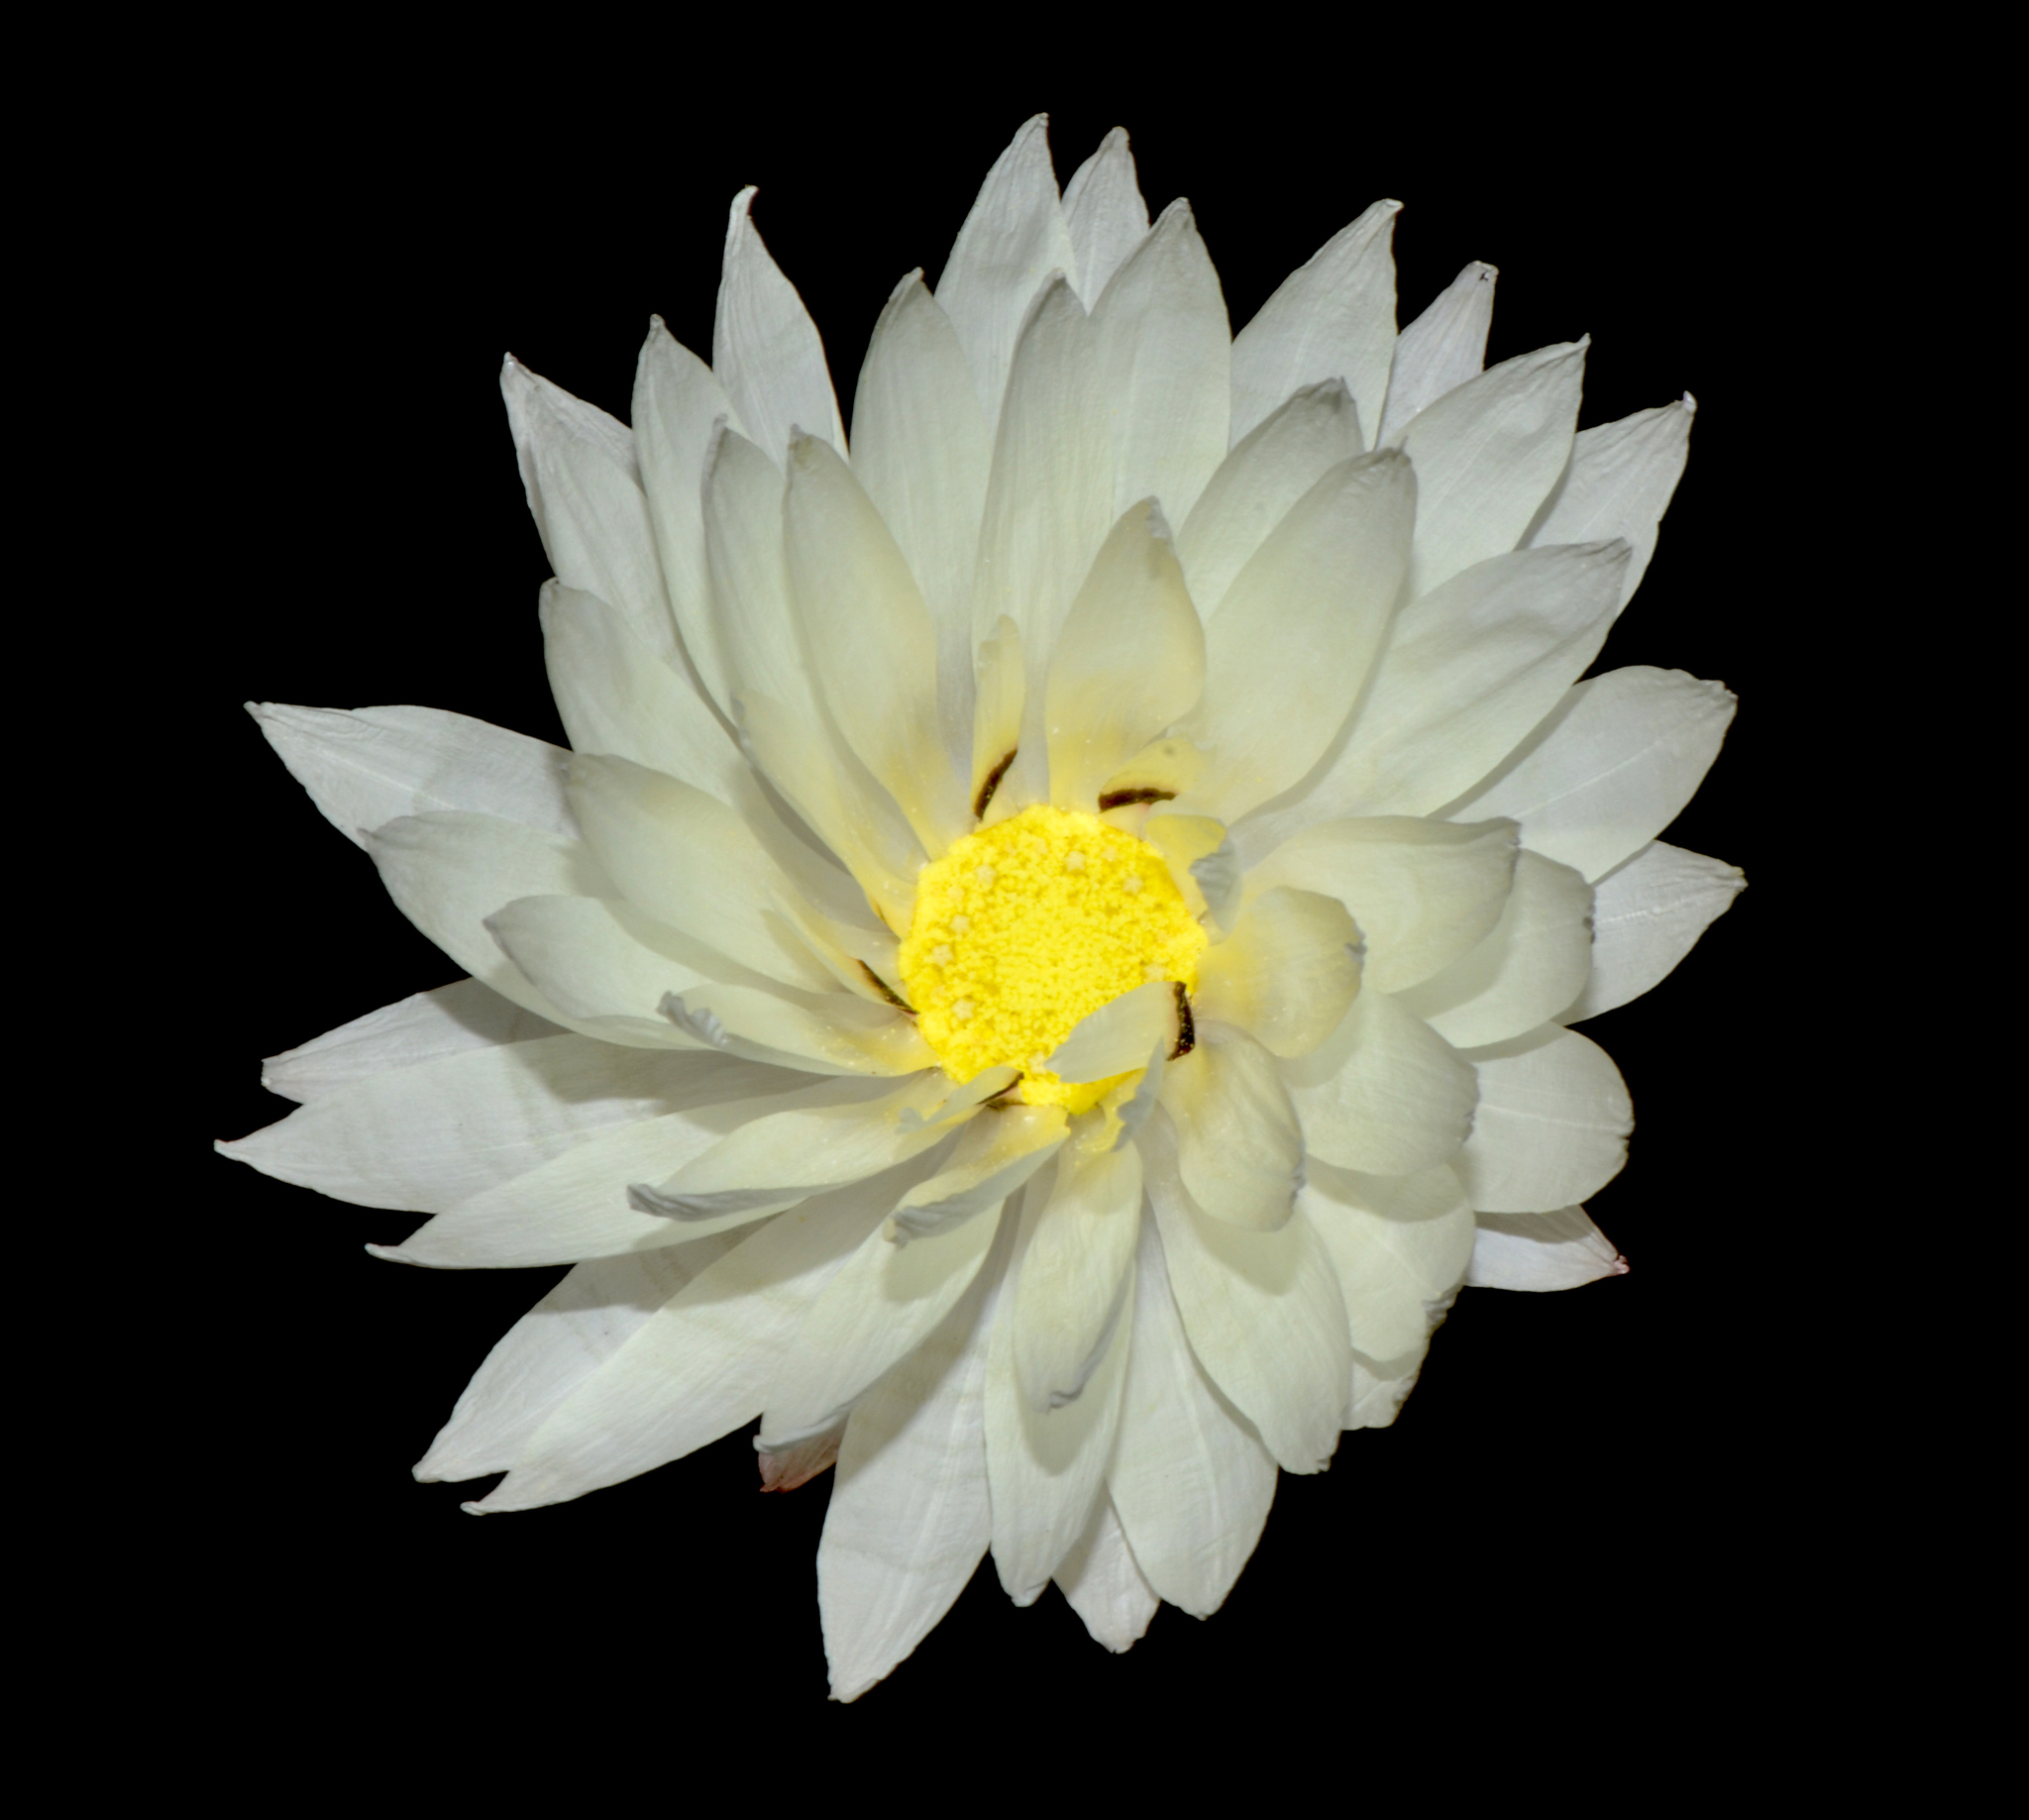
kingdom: Plantae
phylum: Tracheophyta
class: Magnoliopsida
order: Asterales
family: Asteraceae
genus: Rhodanthe
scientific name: Rhodanthe chlorocephala
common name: Rosy sunray
